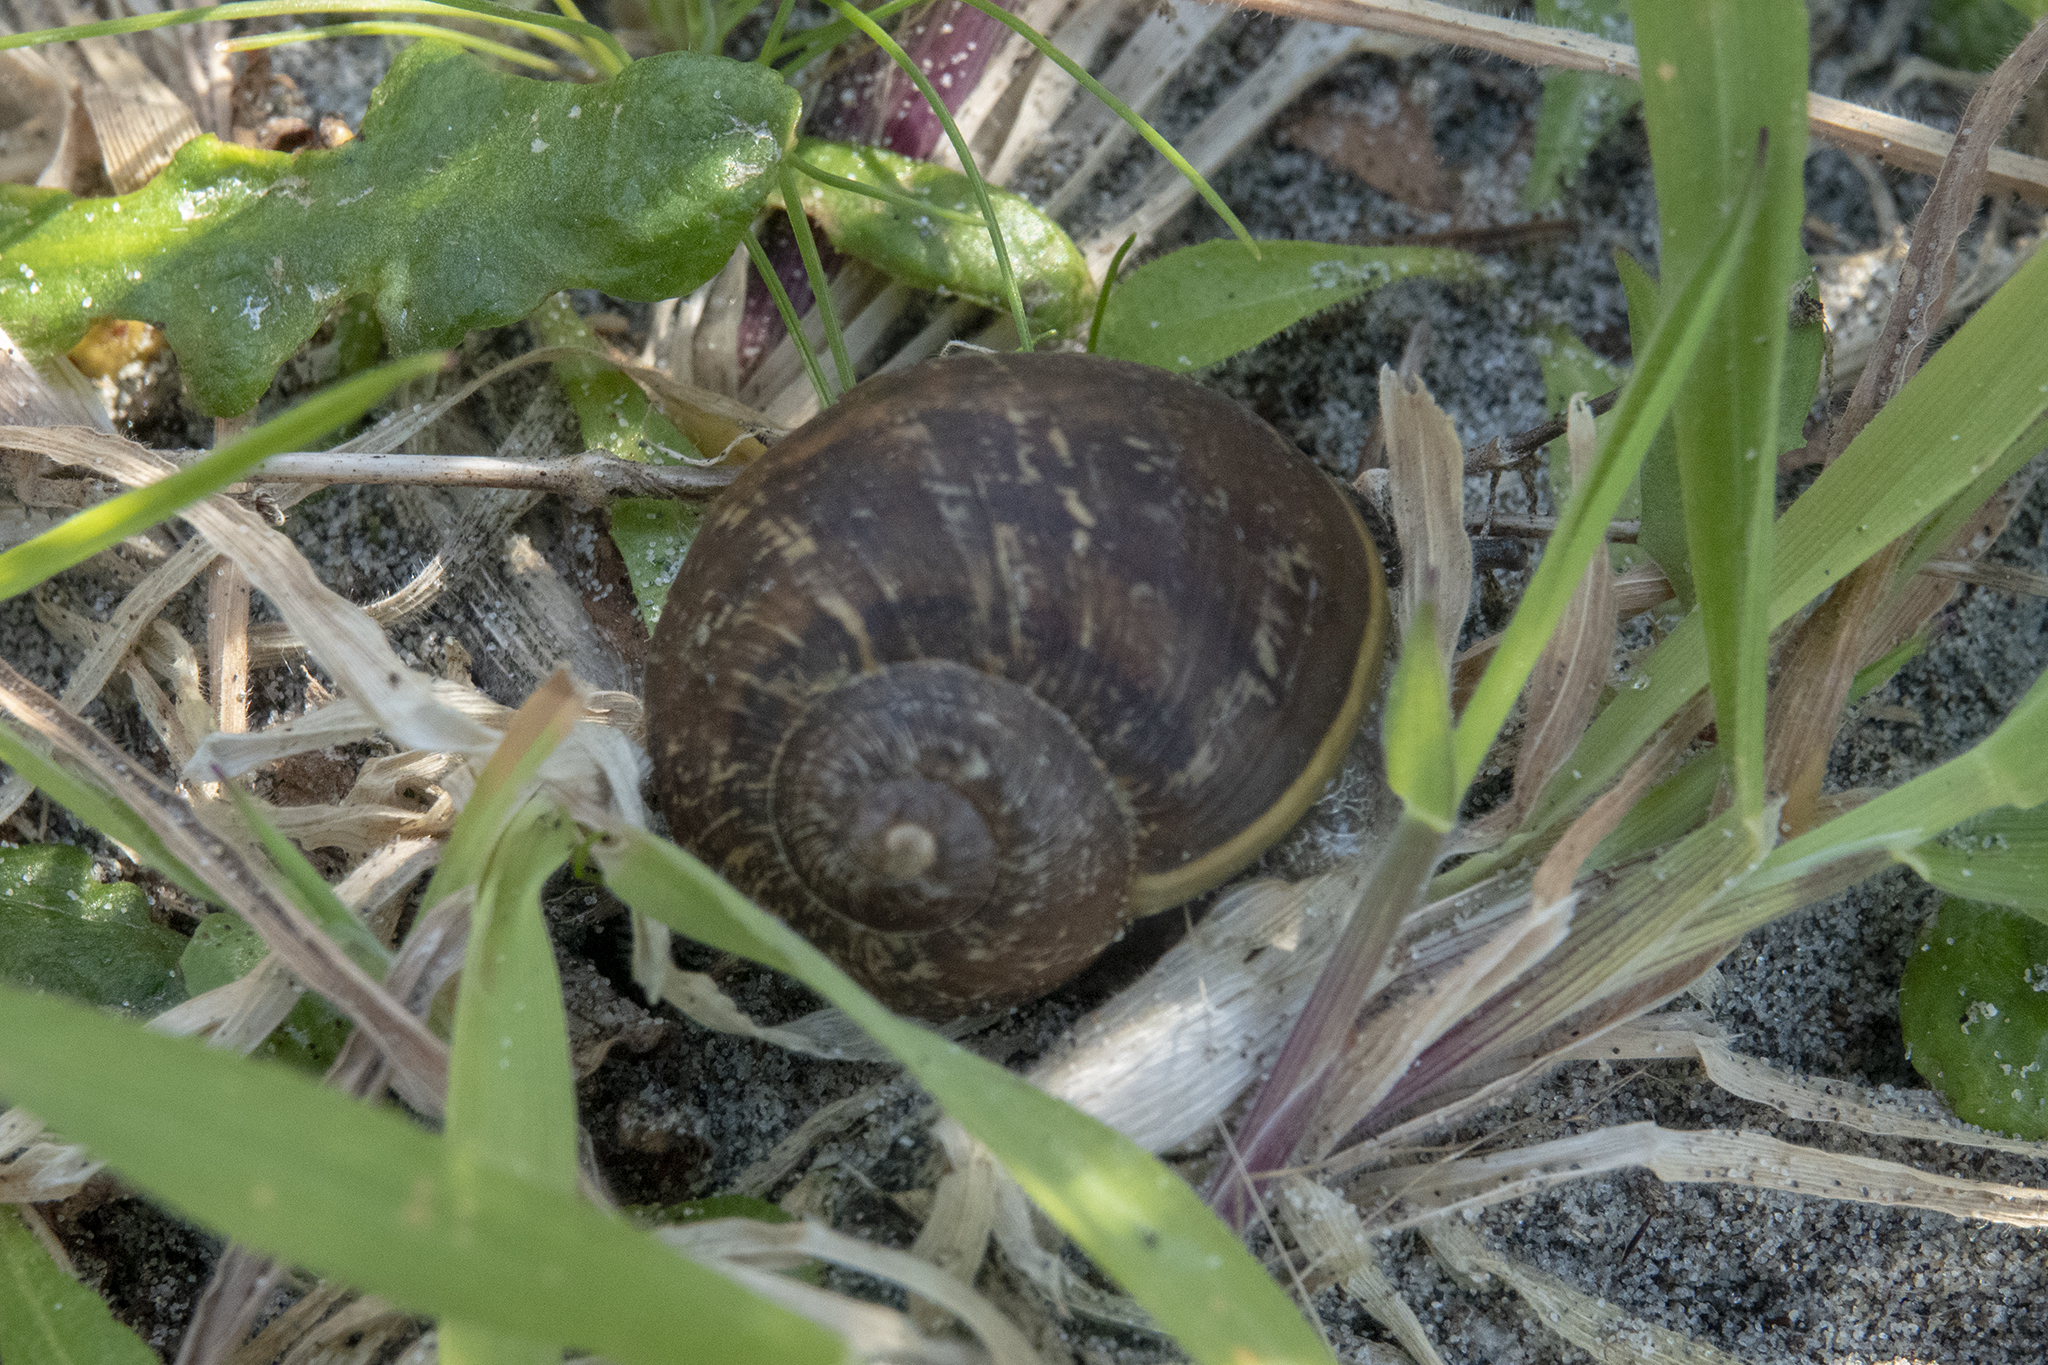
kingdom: Animalia
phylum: Mollusca
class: Gastropoda
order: Stylommatophora
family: Helicidae
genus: Cornu
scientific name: Cornu aspersum
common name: Brown garden snail
